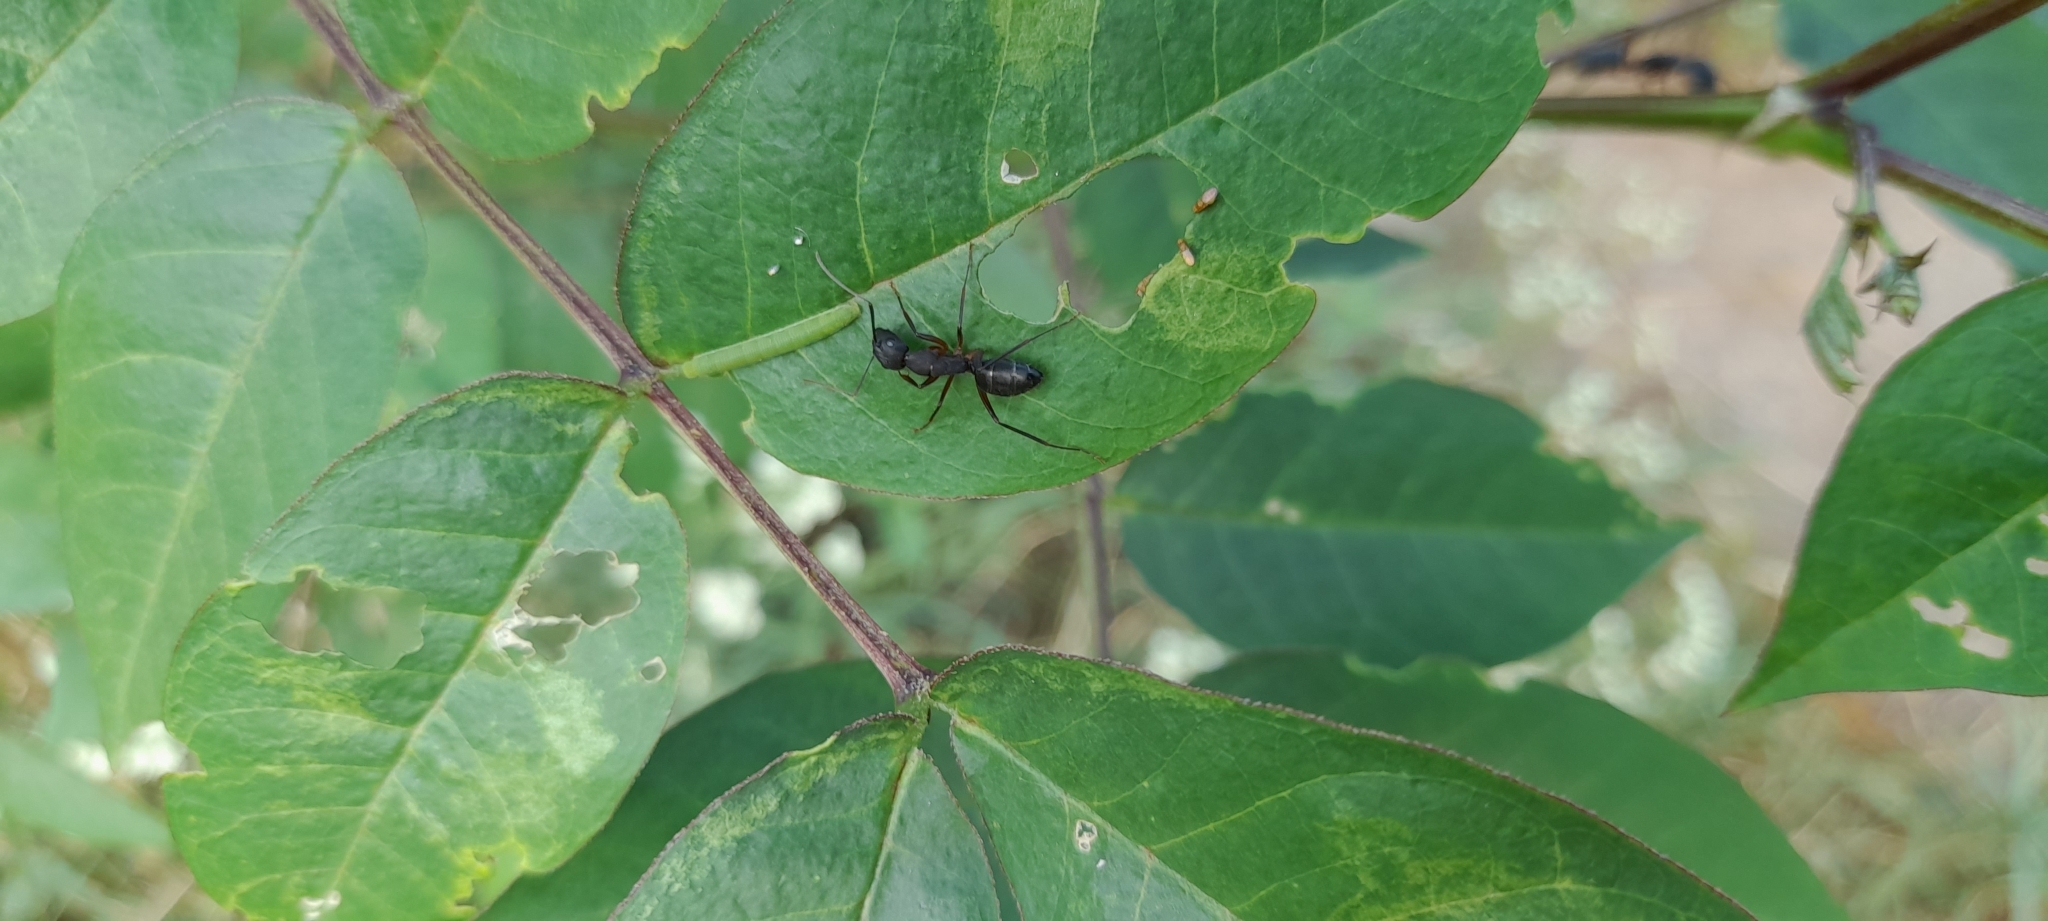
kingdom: Animalia
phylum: Arthropoda
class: Insecta
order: Hymenoptera
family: Formicidae
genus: Camponotus
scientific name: Camponotus compressus
